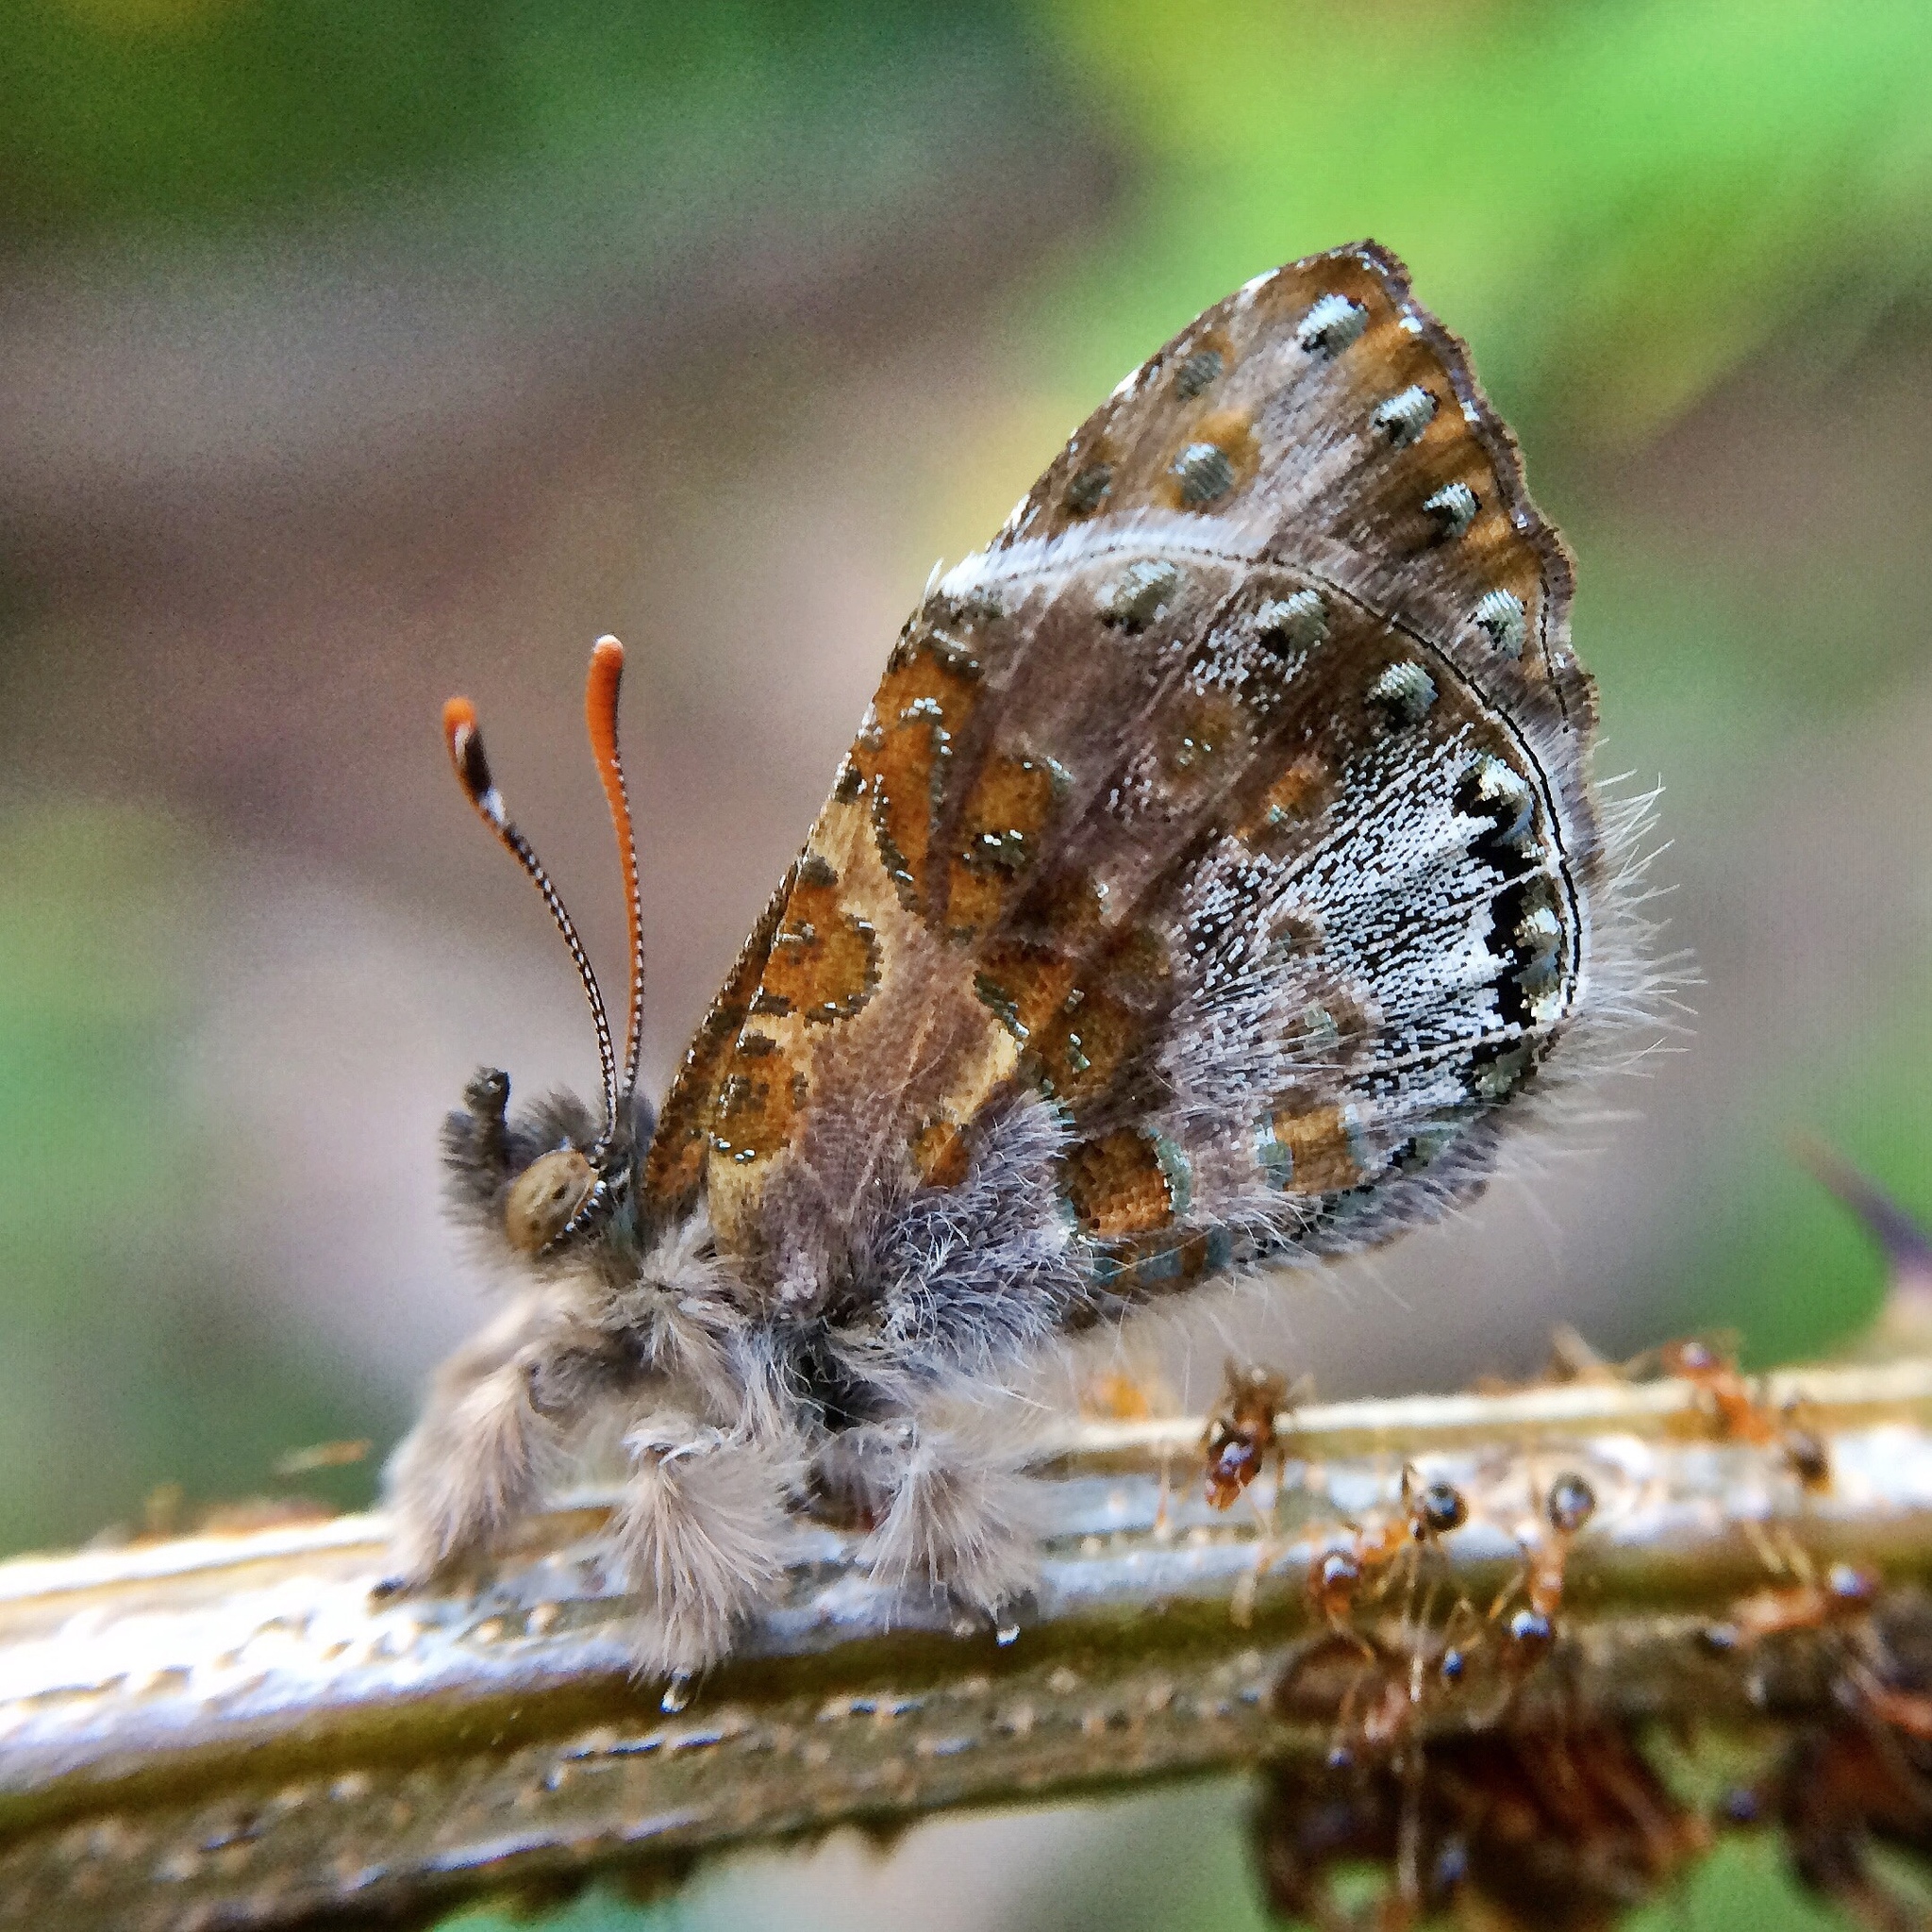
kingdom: Animalia
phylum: Arthropoda
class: Insecta
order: Lepidoptera
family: Lycaenidae
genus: Lachnocnema
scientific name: Lachnocnema bibulus
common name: Common woolly legs
